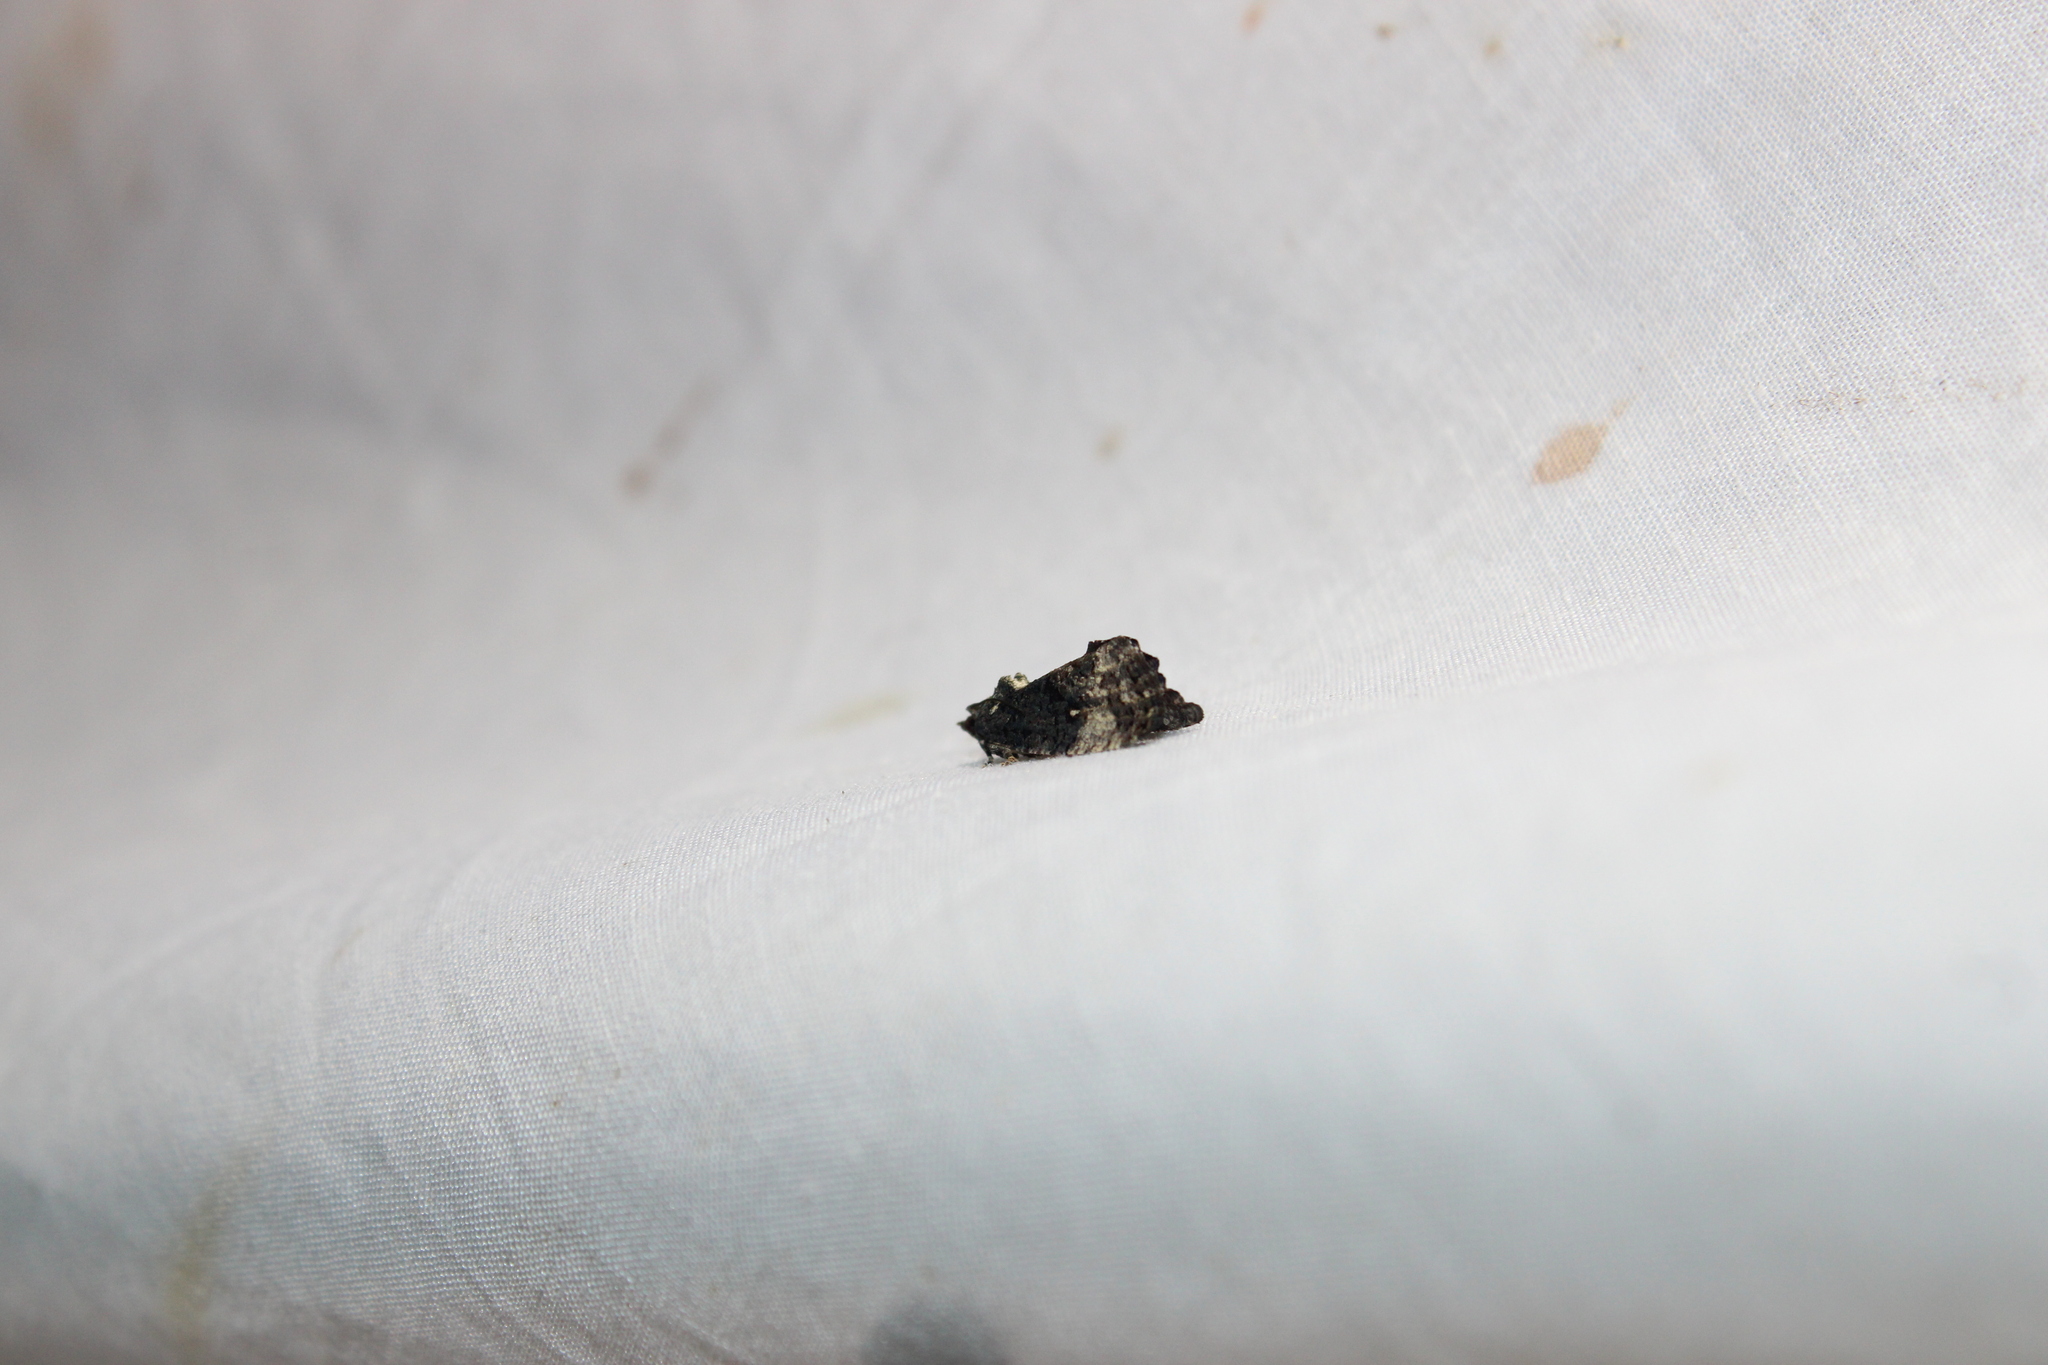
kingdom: Animalia
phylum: Arthropoda
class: Insecta
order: Lepidoptera
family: Tortricidae
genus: Gymnandrosoma
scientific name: Gymnandrosoma punctidiscanum
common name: Dotted ecdytolopha moth
